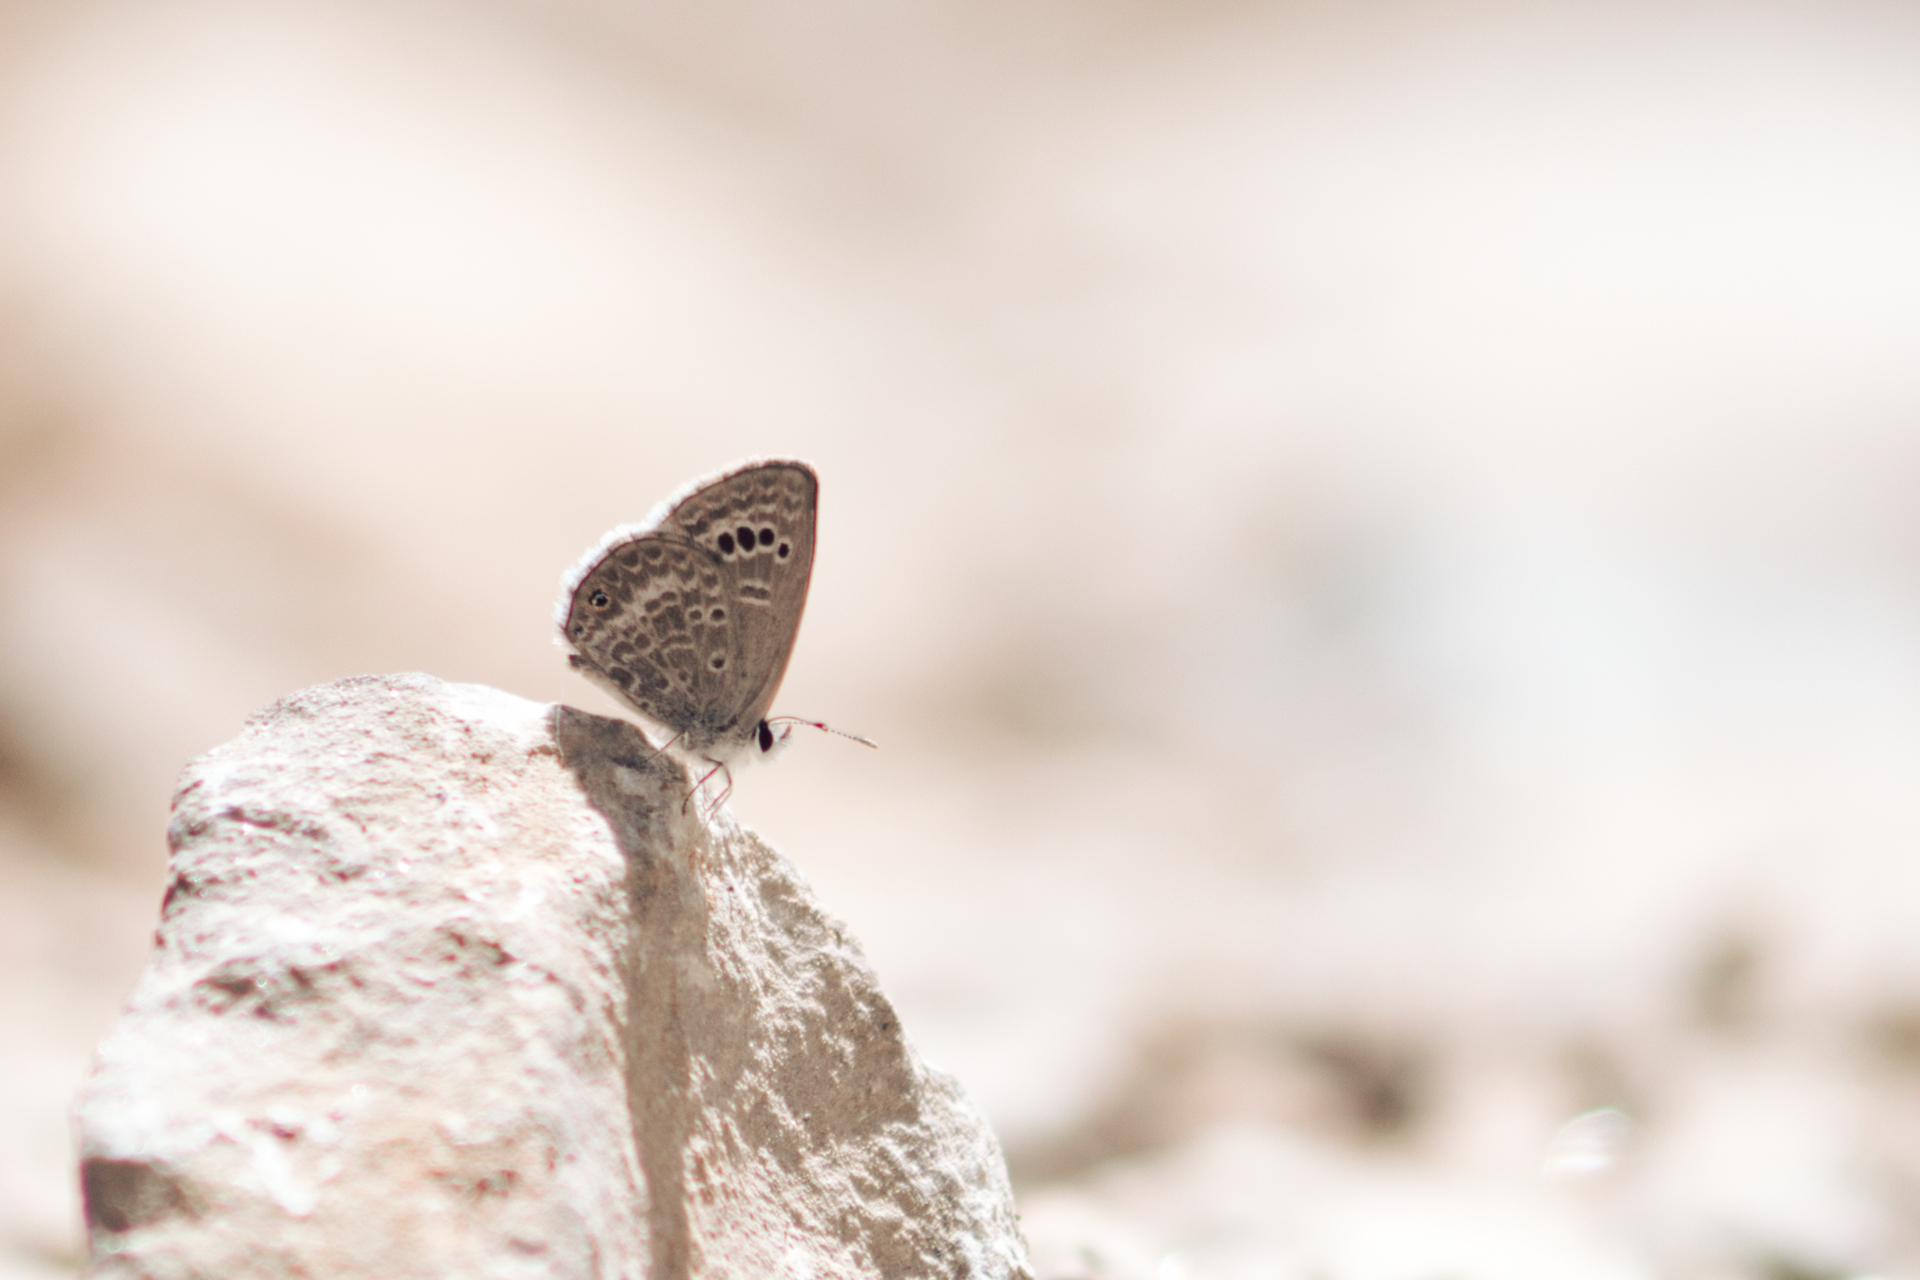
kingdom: Animalia
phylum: Arthropoda
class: Insecta
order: Lepidoptera
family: Lycaenidae
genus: Echinargus
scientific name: Echinargus isola
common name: Reakirt's blue
